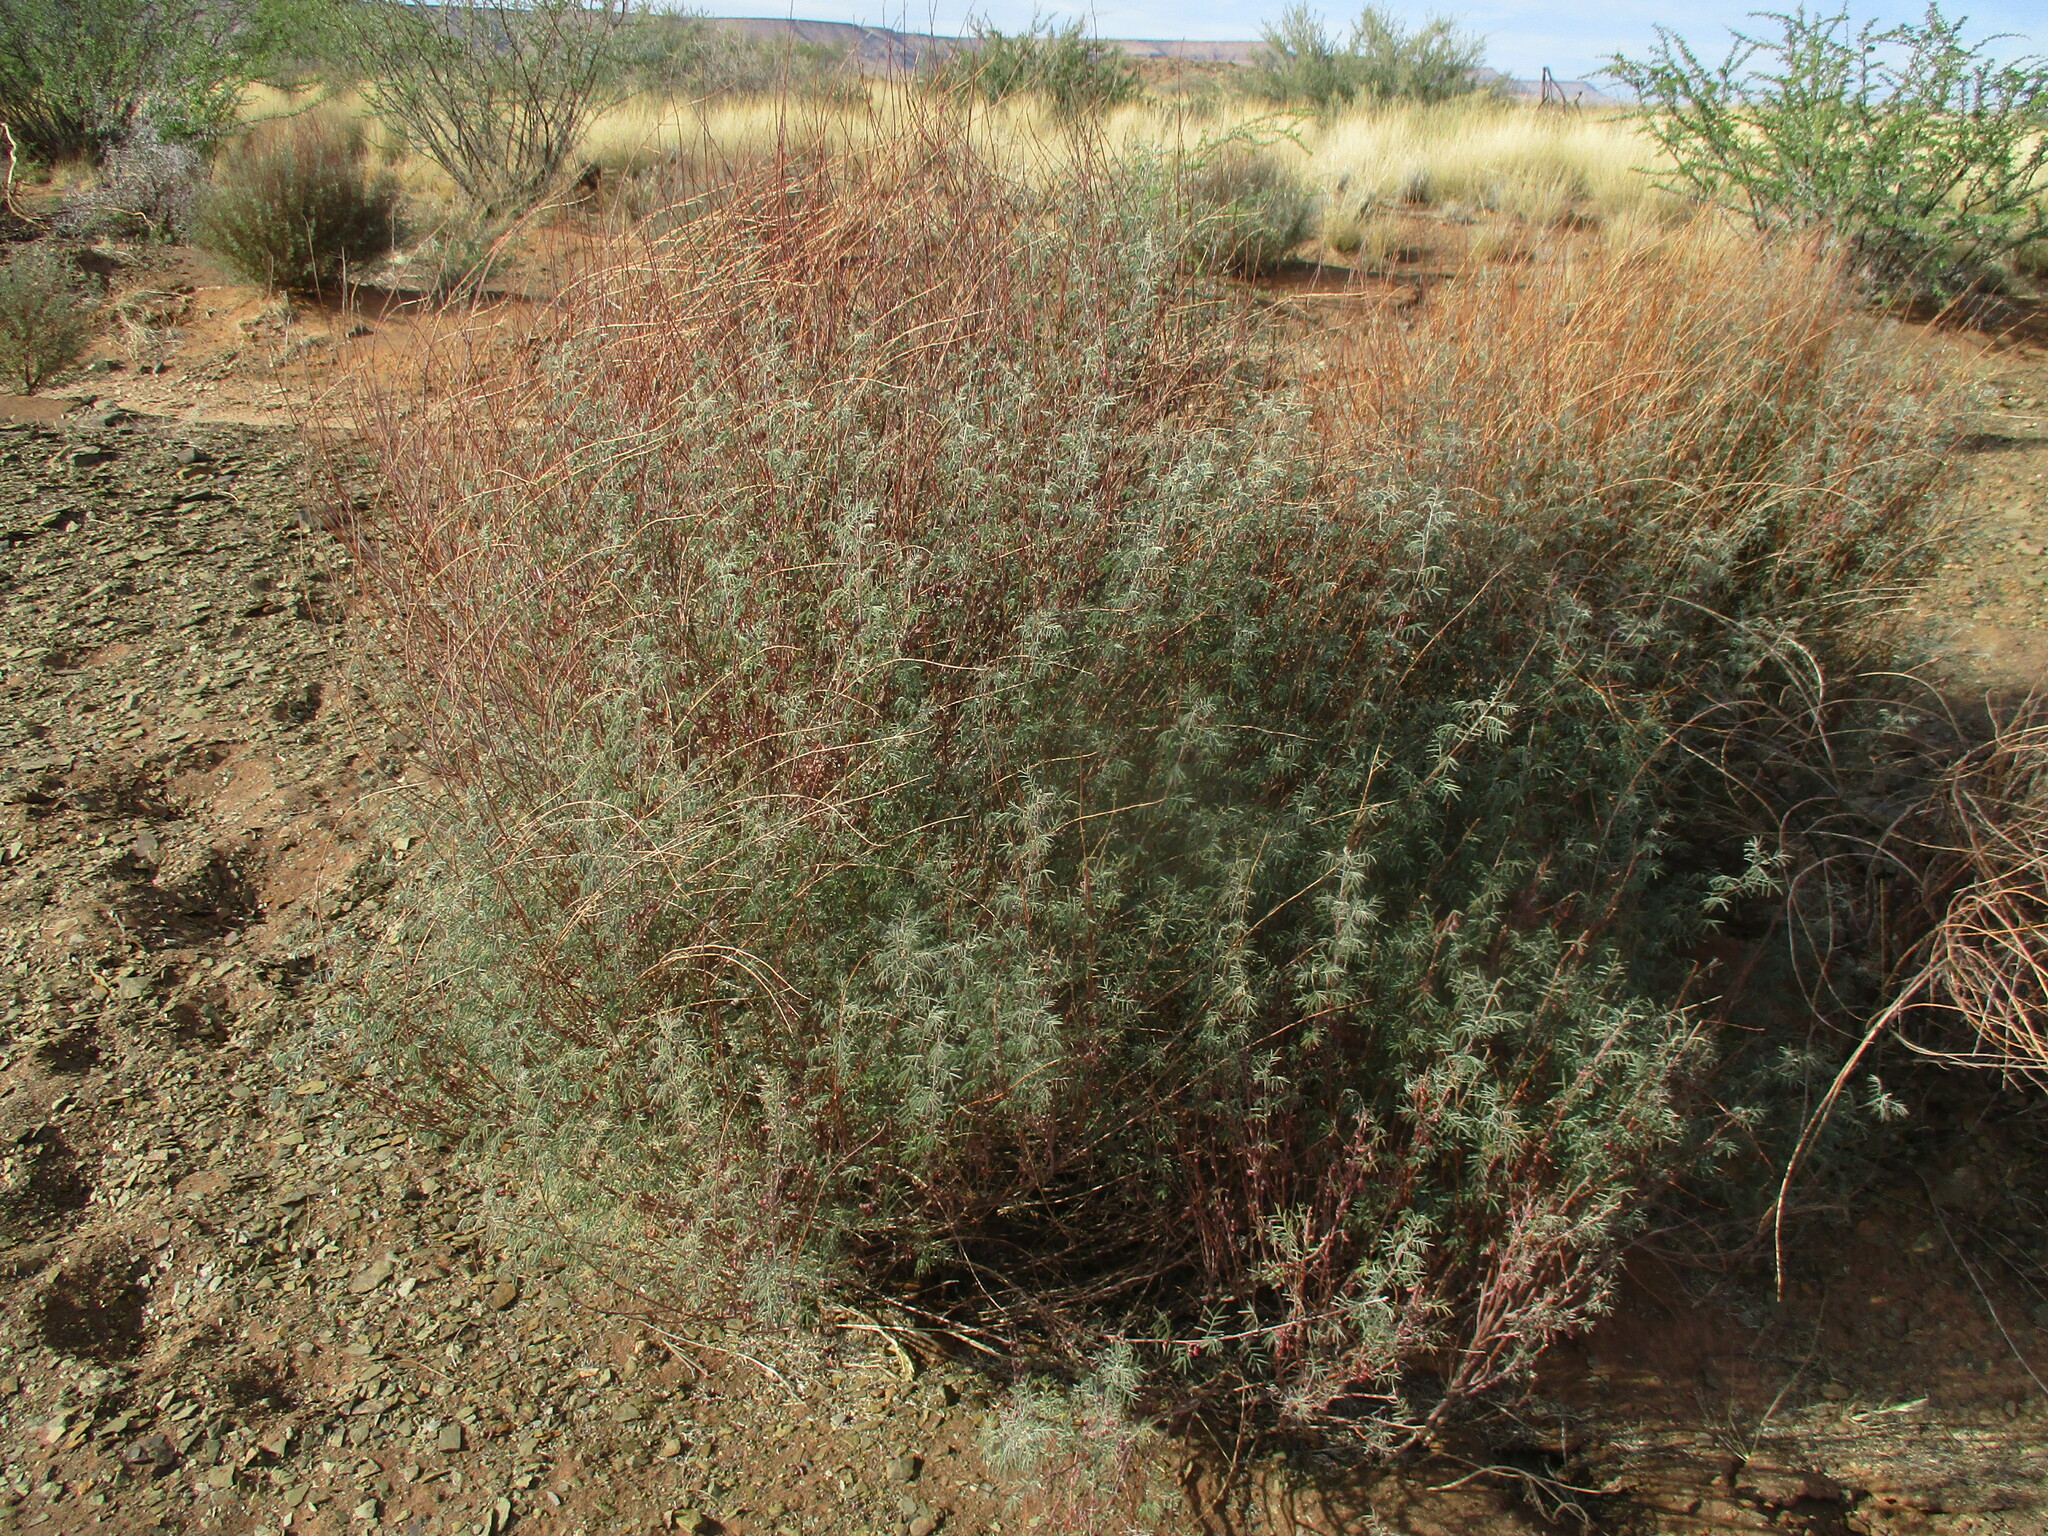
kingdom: Plantae
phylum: Tracheophyta
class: Magnoliopsida
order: Fabales
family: Fabaceae
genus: Indigofera
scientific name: Indigofera cryptantha
